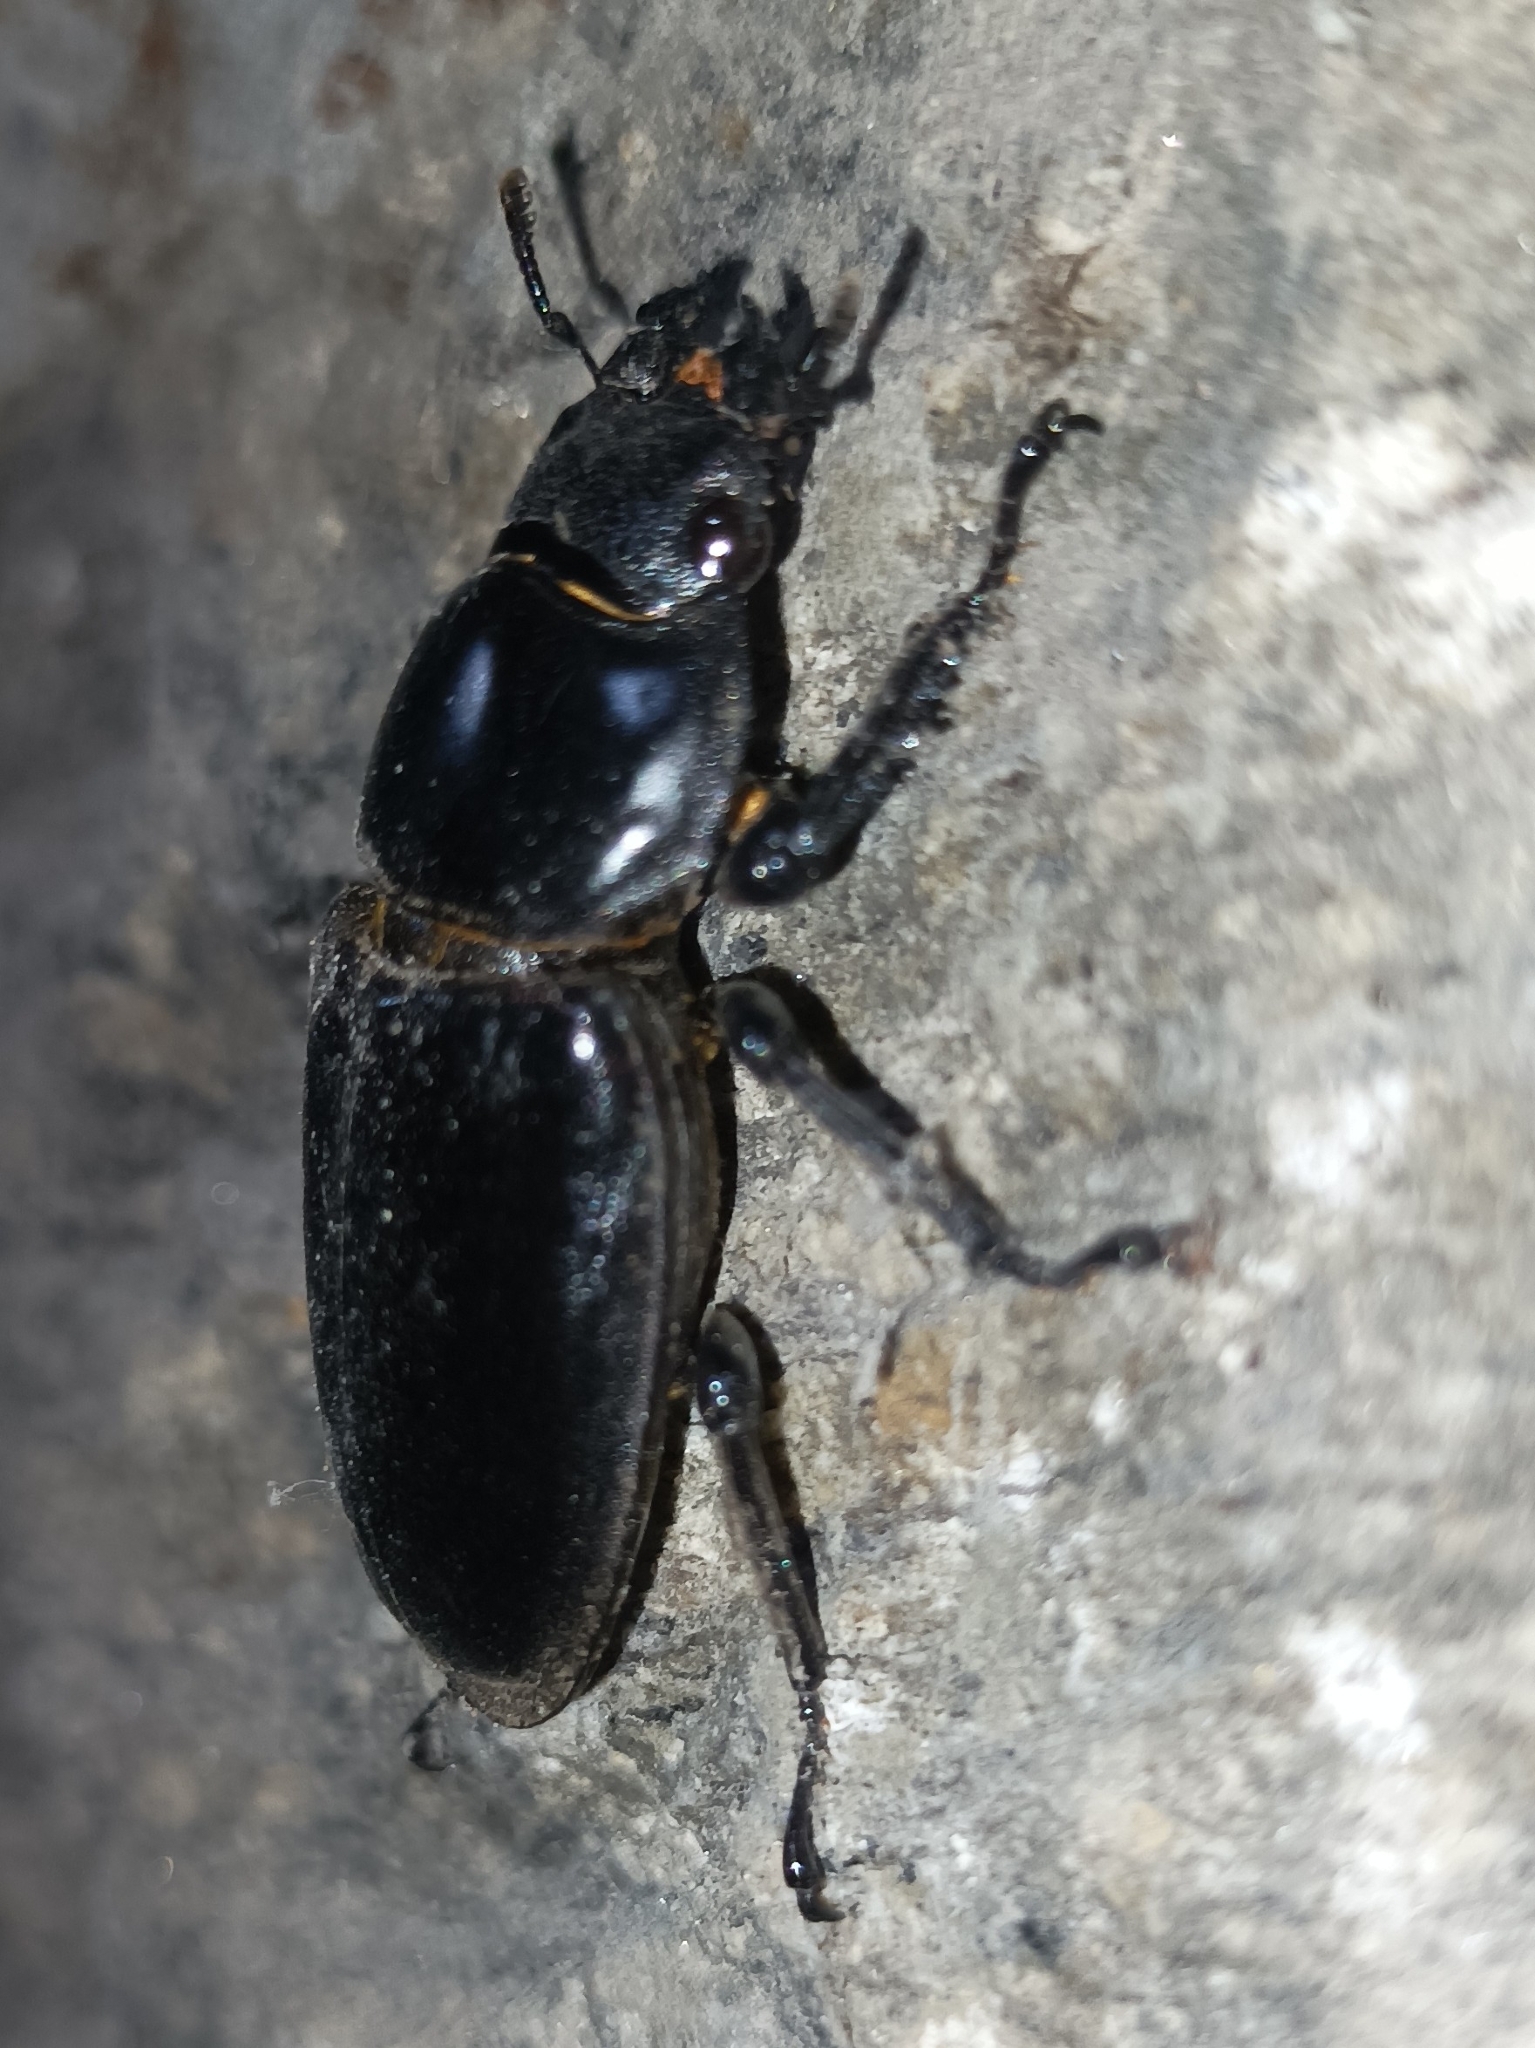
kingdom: Animalia
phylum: Arthropoda
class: Insecta
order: Coleoptera
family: Lucanidae
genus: Dorcus
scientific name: Dorcus antaeus
